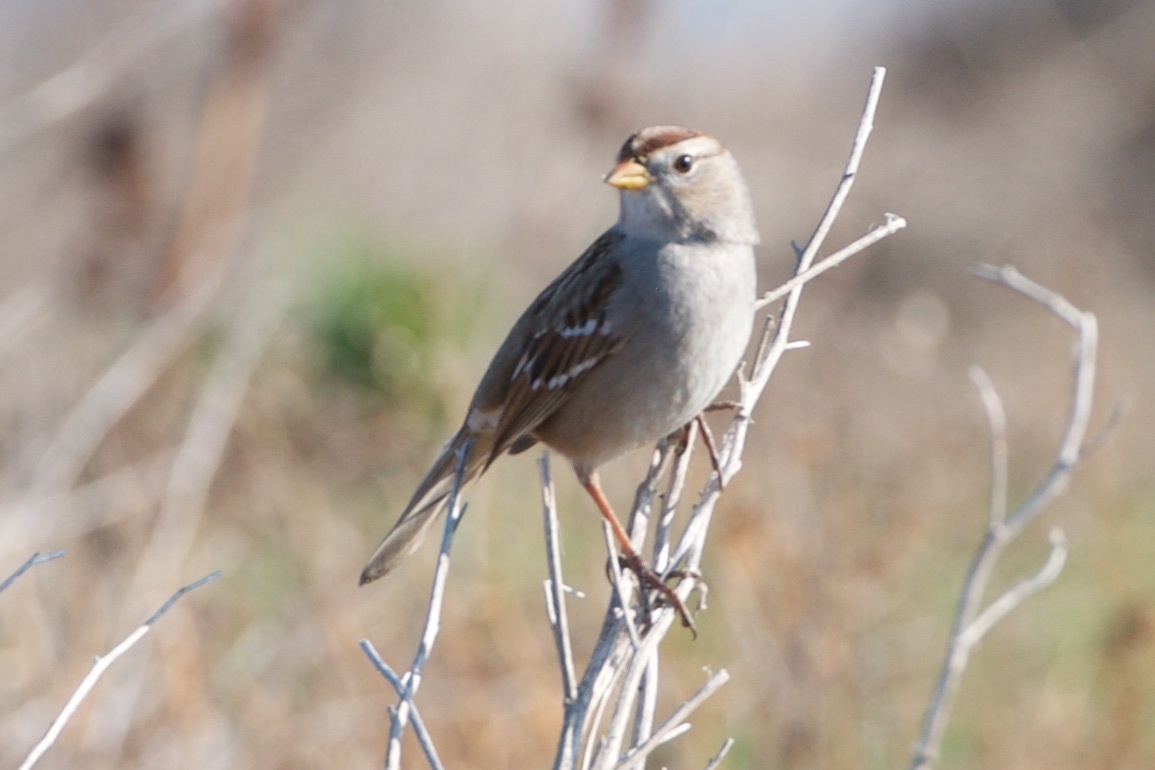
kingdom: Animalia
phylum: Chordata
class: Aves
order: Passeriformes
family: Passerellidae
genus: Zonotrichia
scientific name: Zonotrichia leucophrys
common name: White-crowned sparrow
